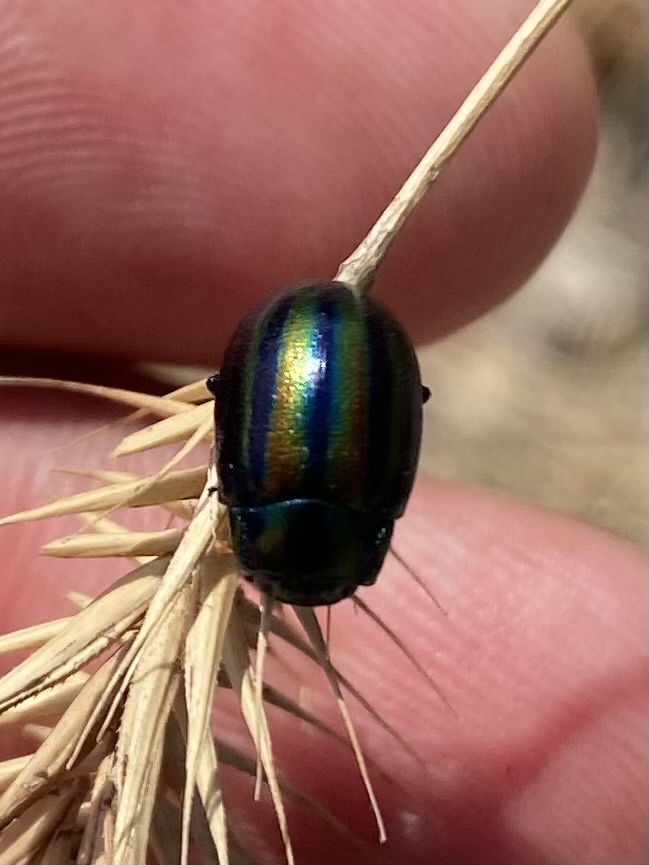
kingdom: Animalia
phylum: Arthropoda
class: Insecta
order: Coleoptera
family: Chrysomelidae
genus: Chrysolina
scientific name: Chrysolina cerealis
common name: Rainbow leaf beetle
